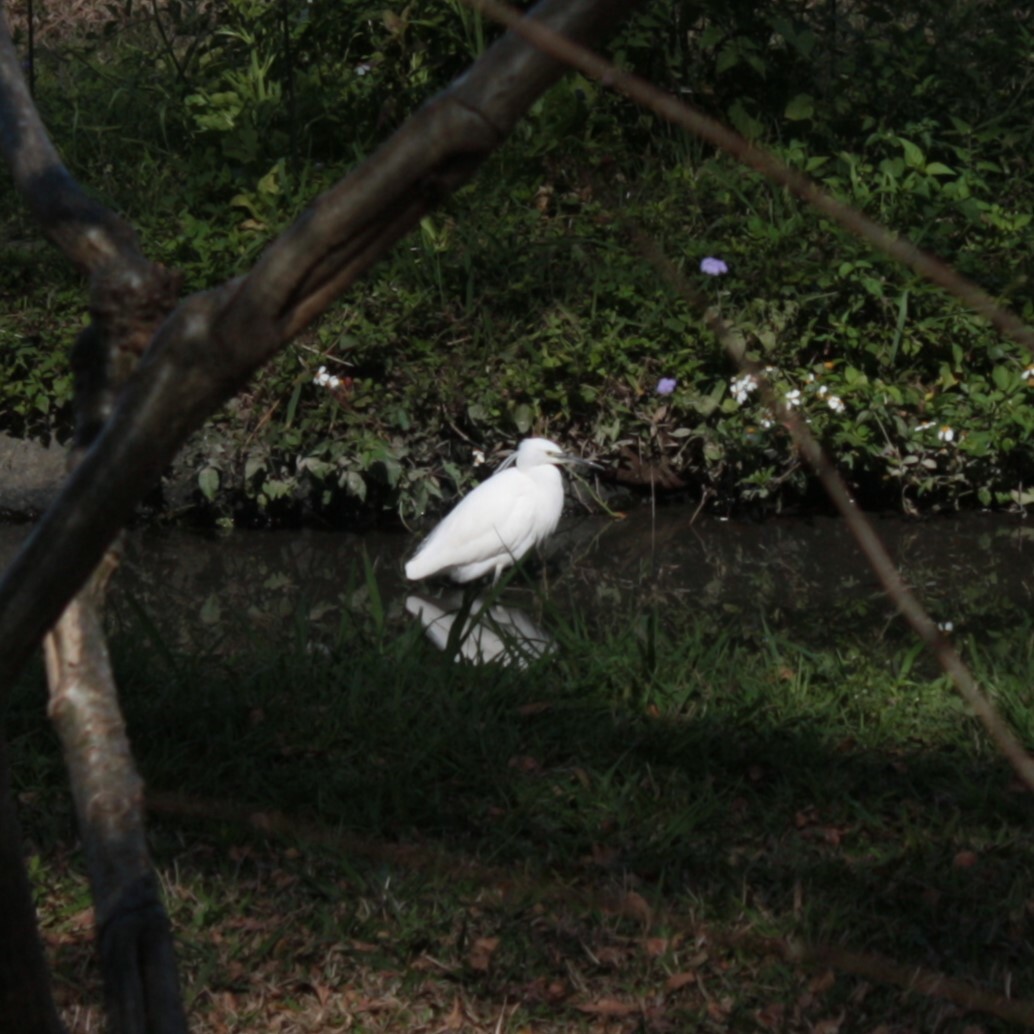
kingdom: Animalia
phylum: Chordata
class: Aves
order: Pelecaniformes
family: Ardeidae
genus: Egretta
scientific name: Egretta garzetta
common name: Little egret
